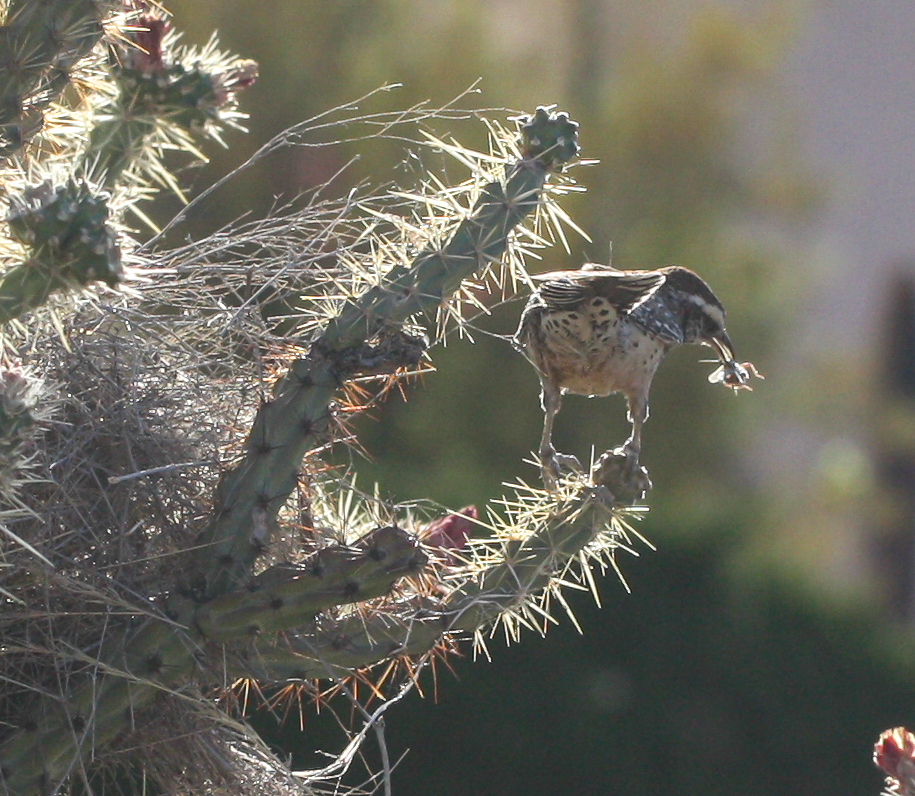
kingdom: Animalia
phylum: Chordata
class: Aves
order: Passeriformes
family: Troglodytidae
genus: Campylorhynchus
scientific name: Campylorhynchus brunneicapillus
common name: Cactus wren
